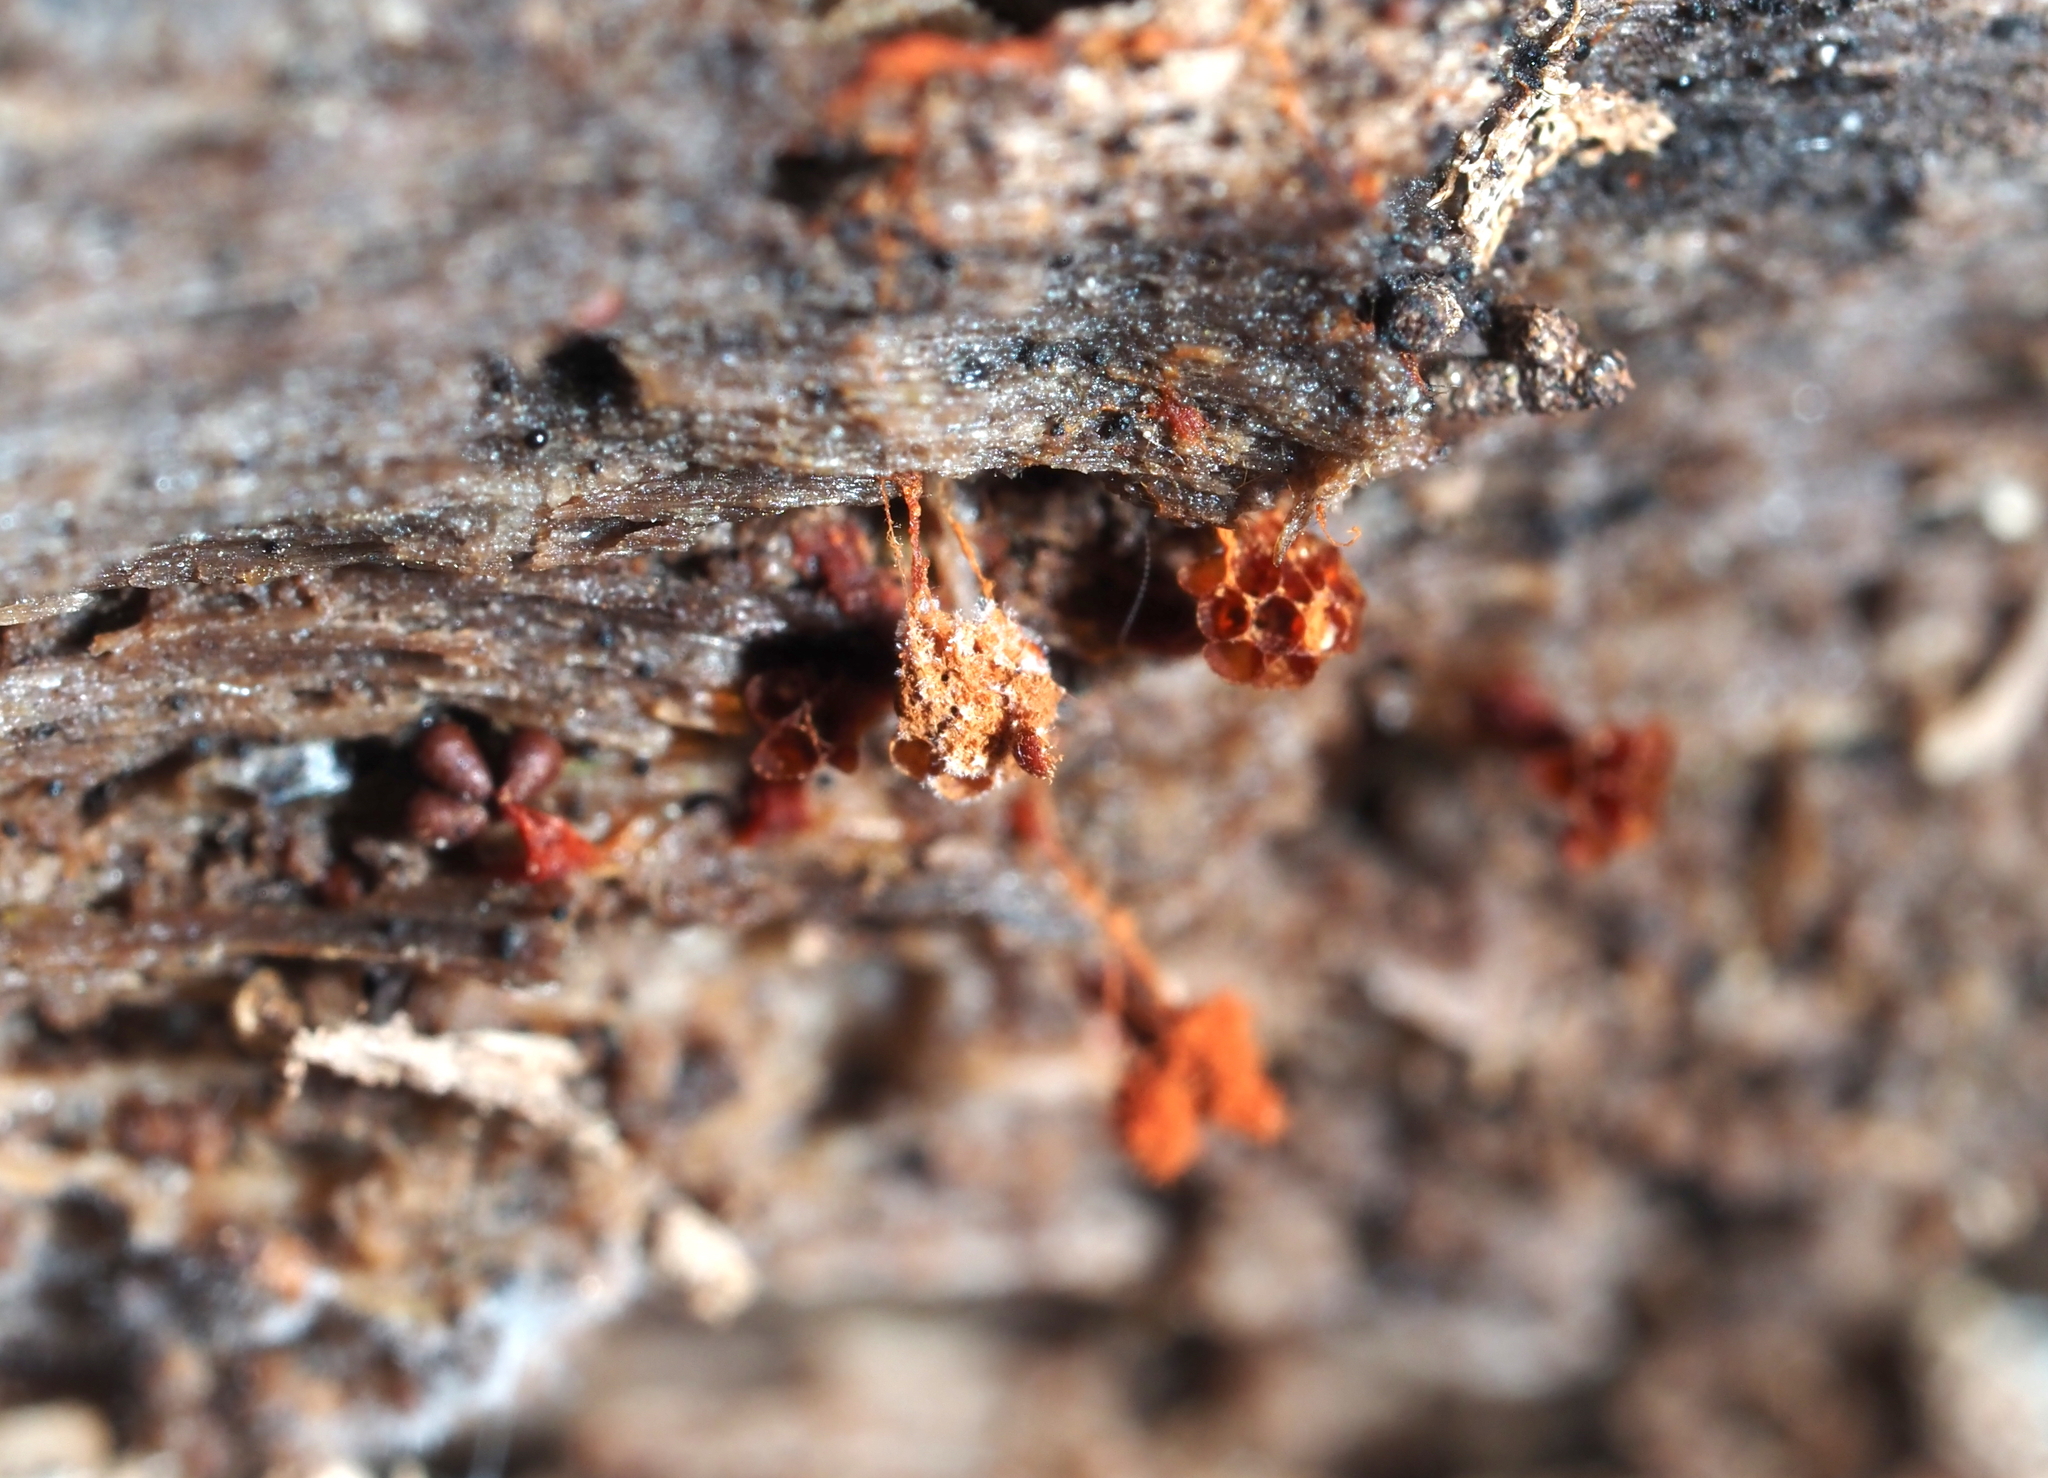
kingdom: Protozoa
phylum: Mycetozoa
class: Myxomycetes
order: Trichiales
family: Trichiaceae
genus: Metatrichia
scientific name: Metatrichia vesparia
